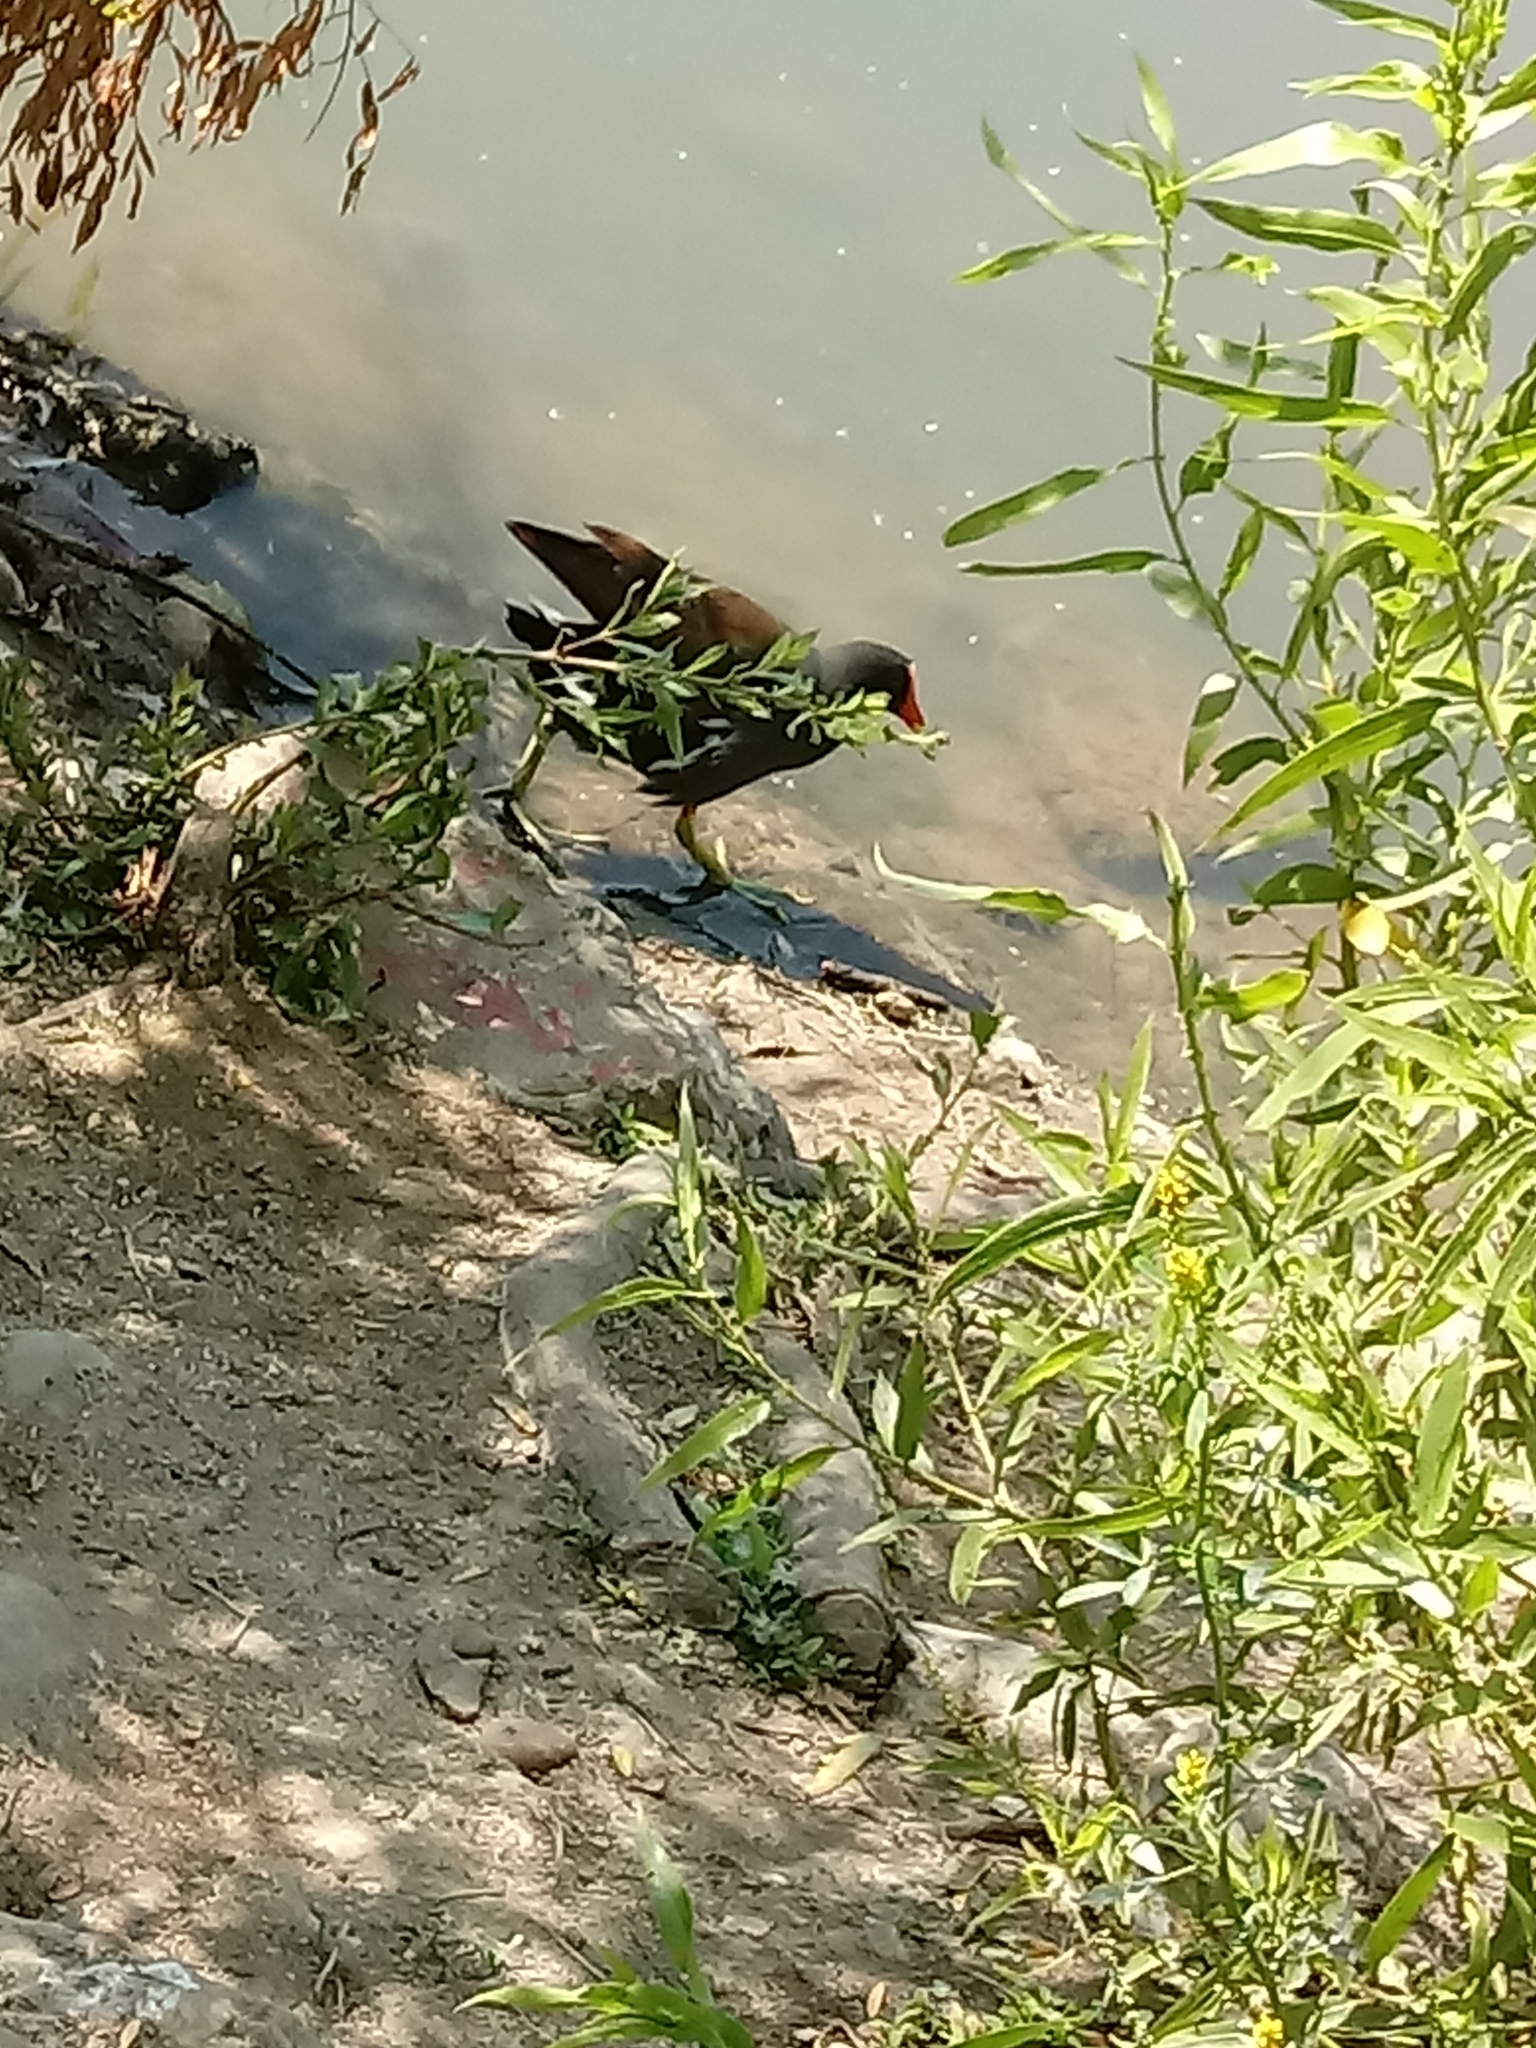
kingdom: Animalia
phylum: Chordata
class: Aves
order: Gruiformes
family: Rallidae
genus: Gallinula
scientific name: Gallinula chloropus
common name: Common moorhen
